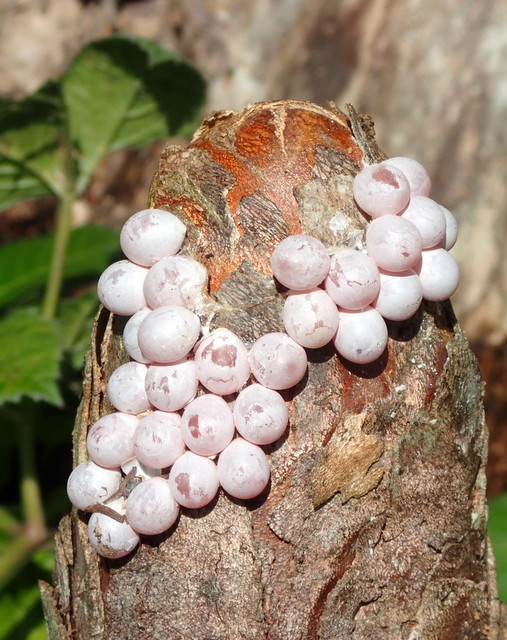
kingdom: Animalia
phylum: Mollusca
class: Gastropoda
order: Architaenioglossa
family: Ampullariidae
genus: Pomacea
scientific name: Pomacea paludosa
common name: Florida applesnail
